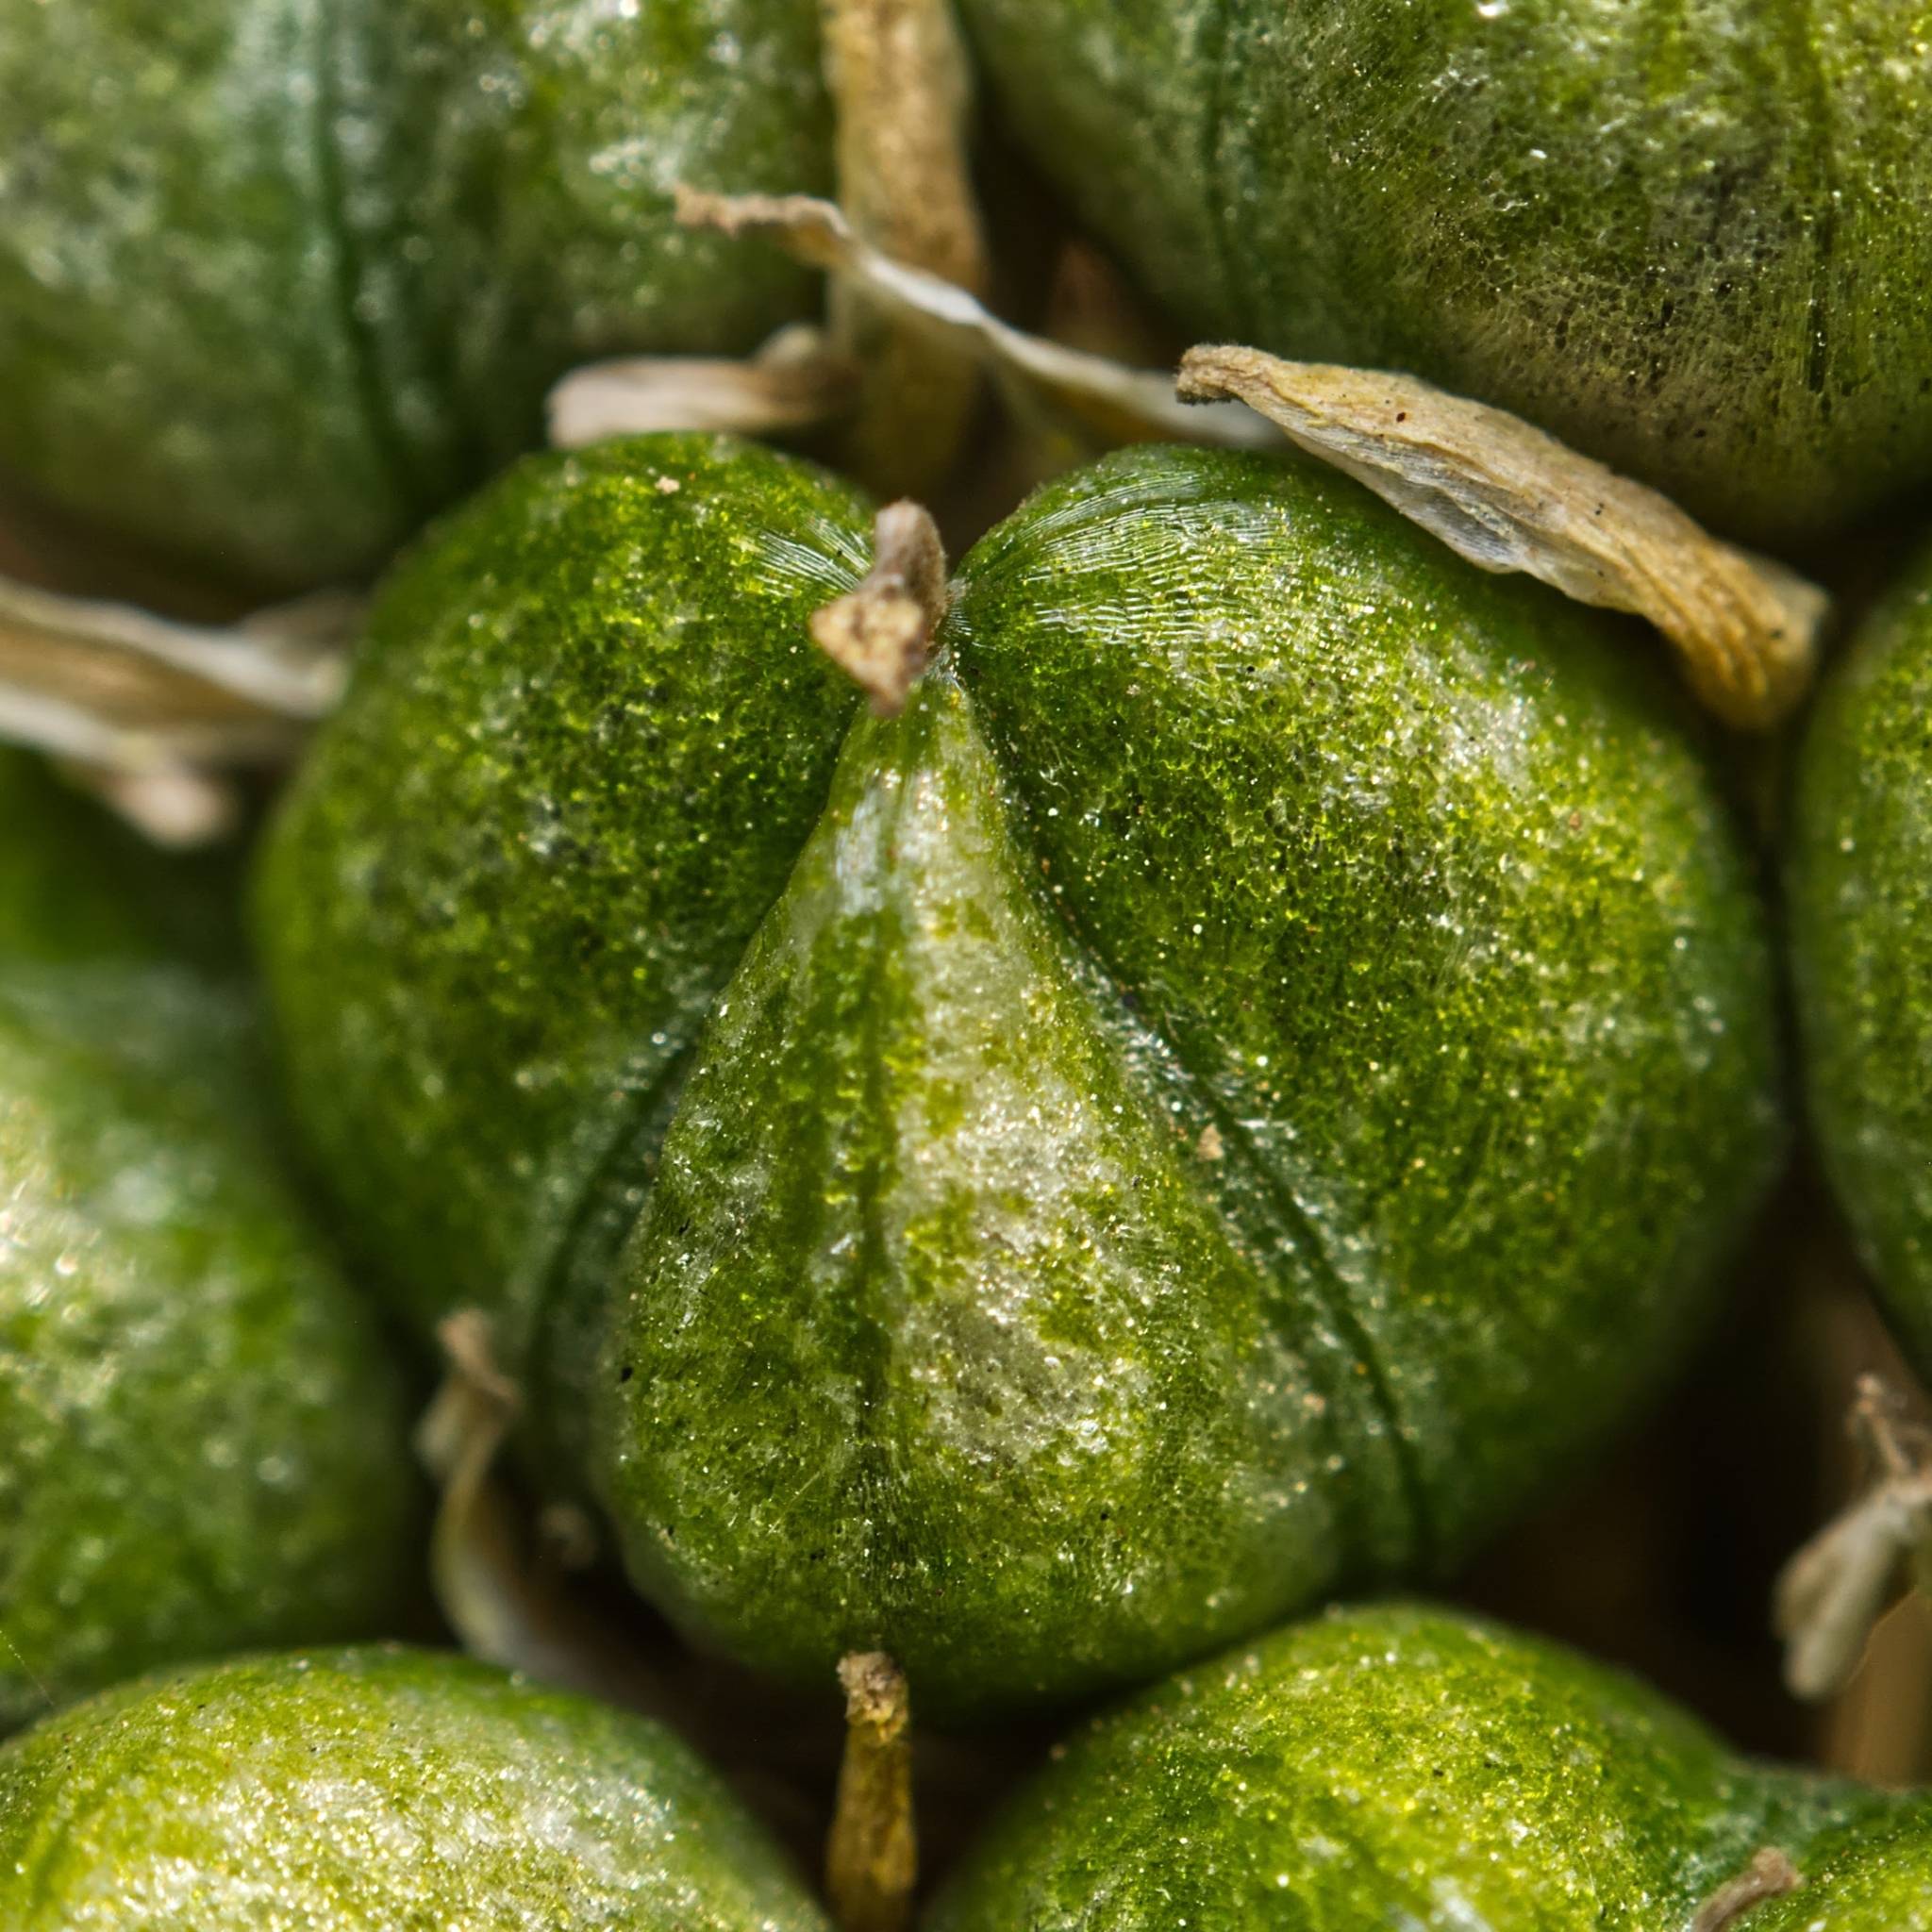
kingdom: Plantae
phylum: Tracheophyta
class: Liliopsida
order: Asparagales
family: Asparagaceae
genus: Schizocarphus
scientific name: Schizocarphus nervosus
